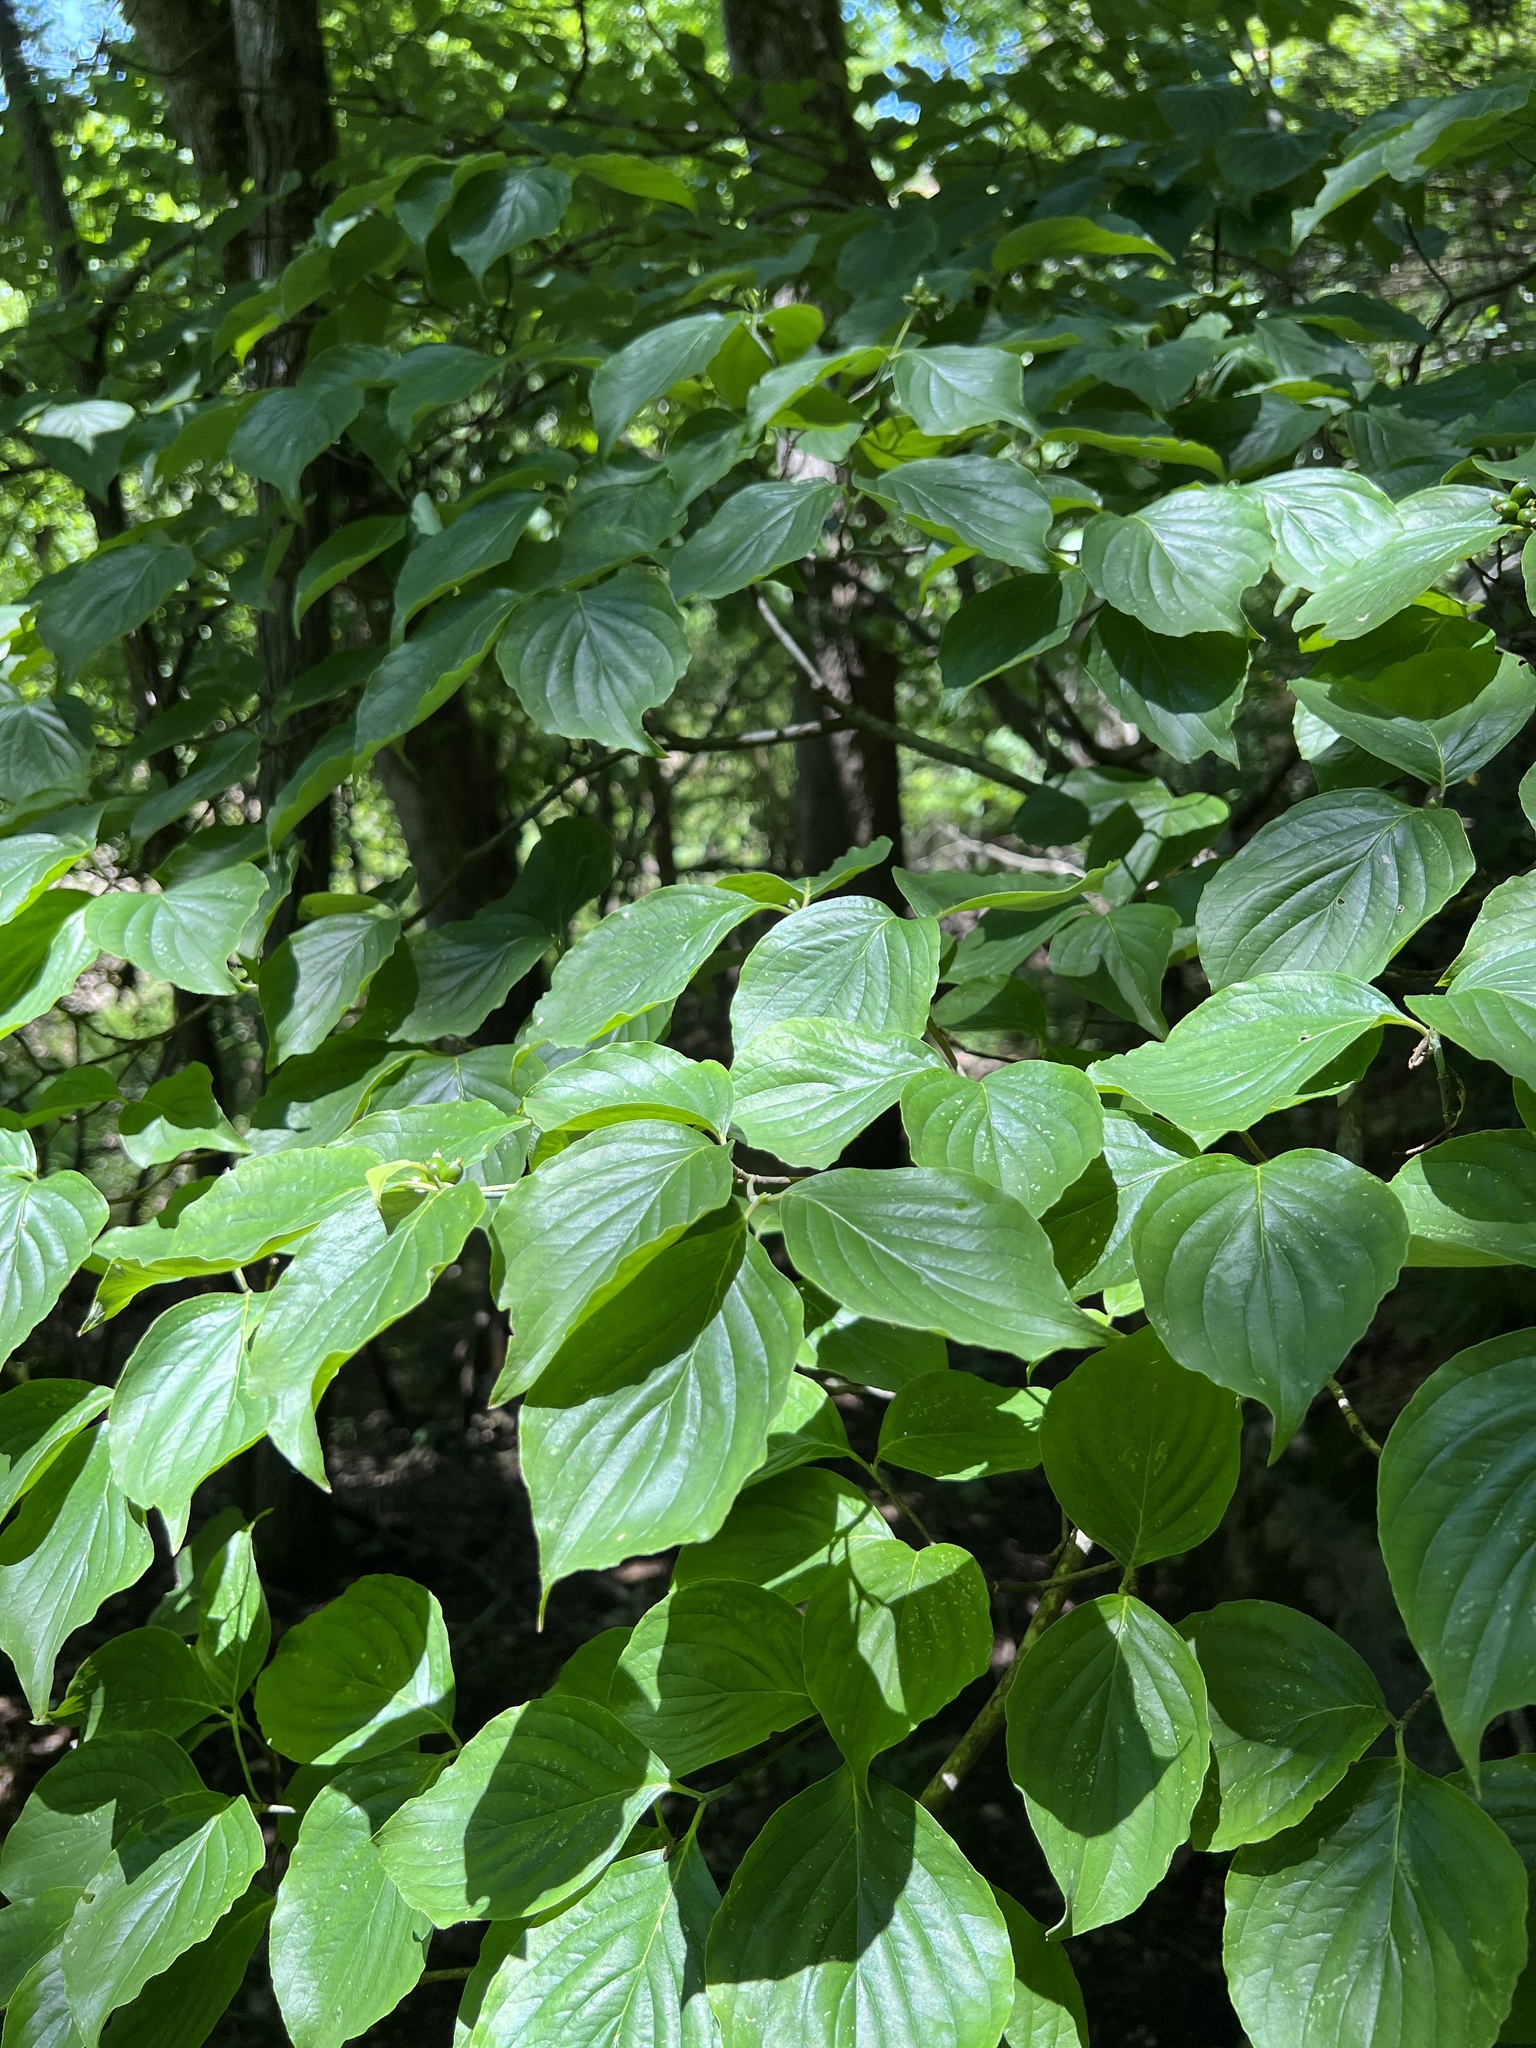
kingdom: Plantae
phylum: Tracheophyta
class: Magnoliopsida
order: Cornales
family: Cornaceae
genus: Cornus
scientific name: Cornus florida
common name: Flowering dogwood
